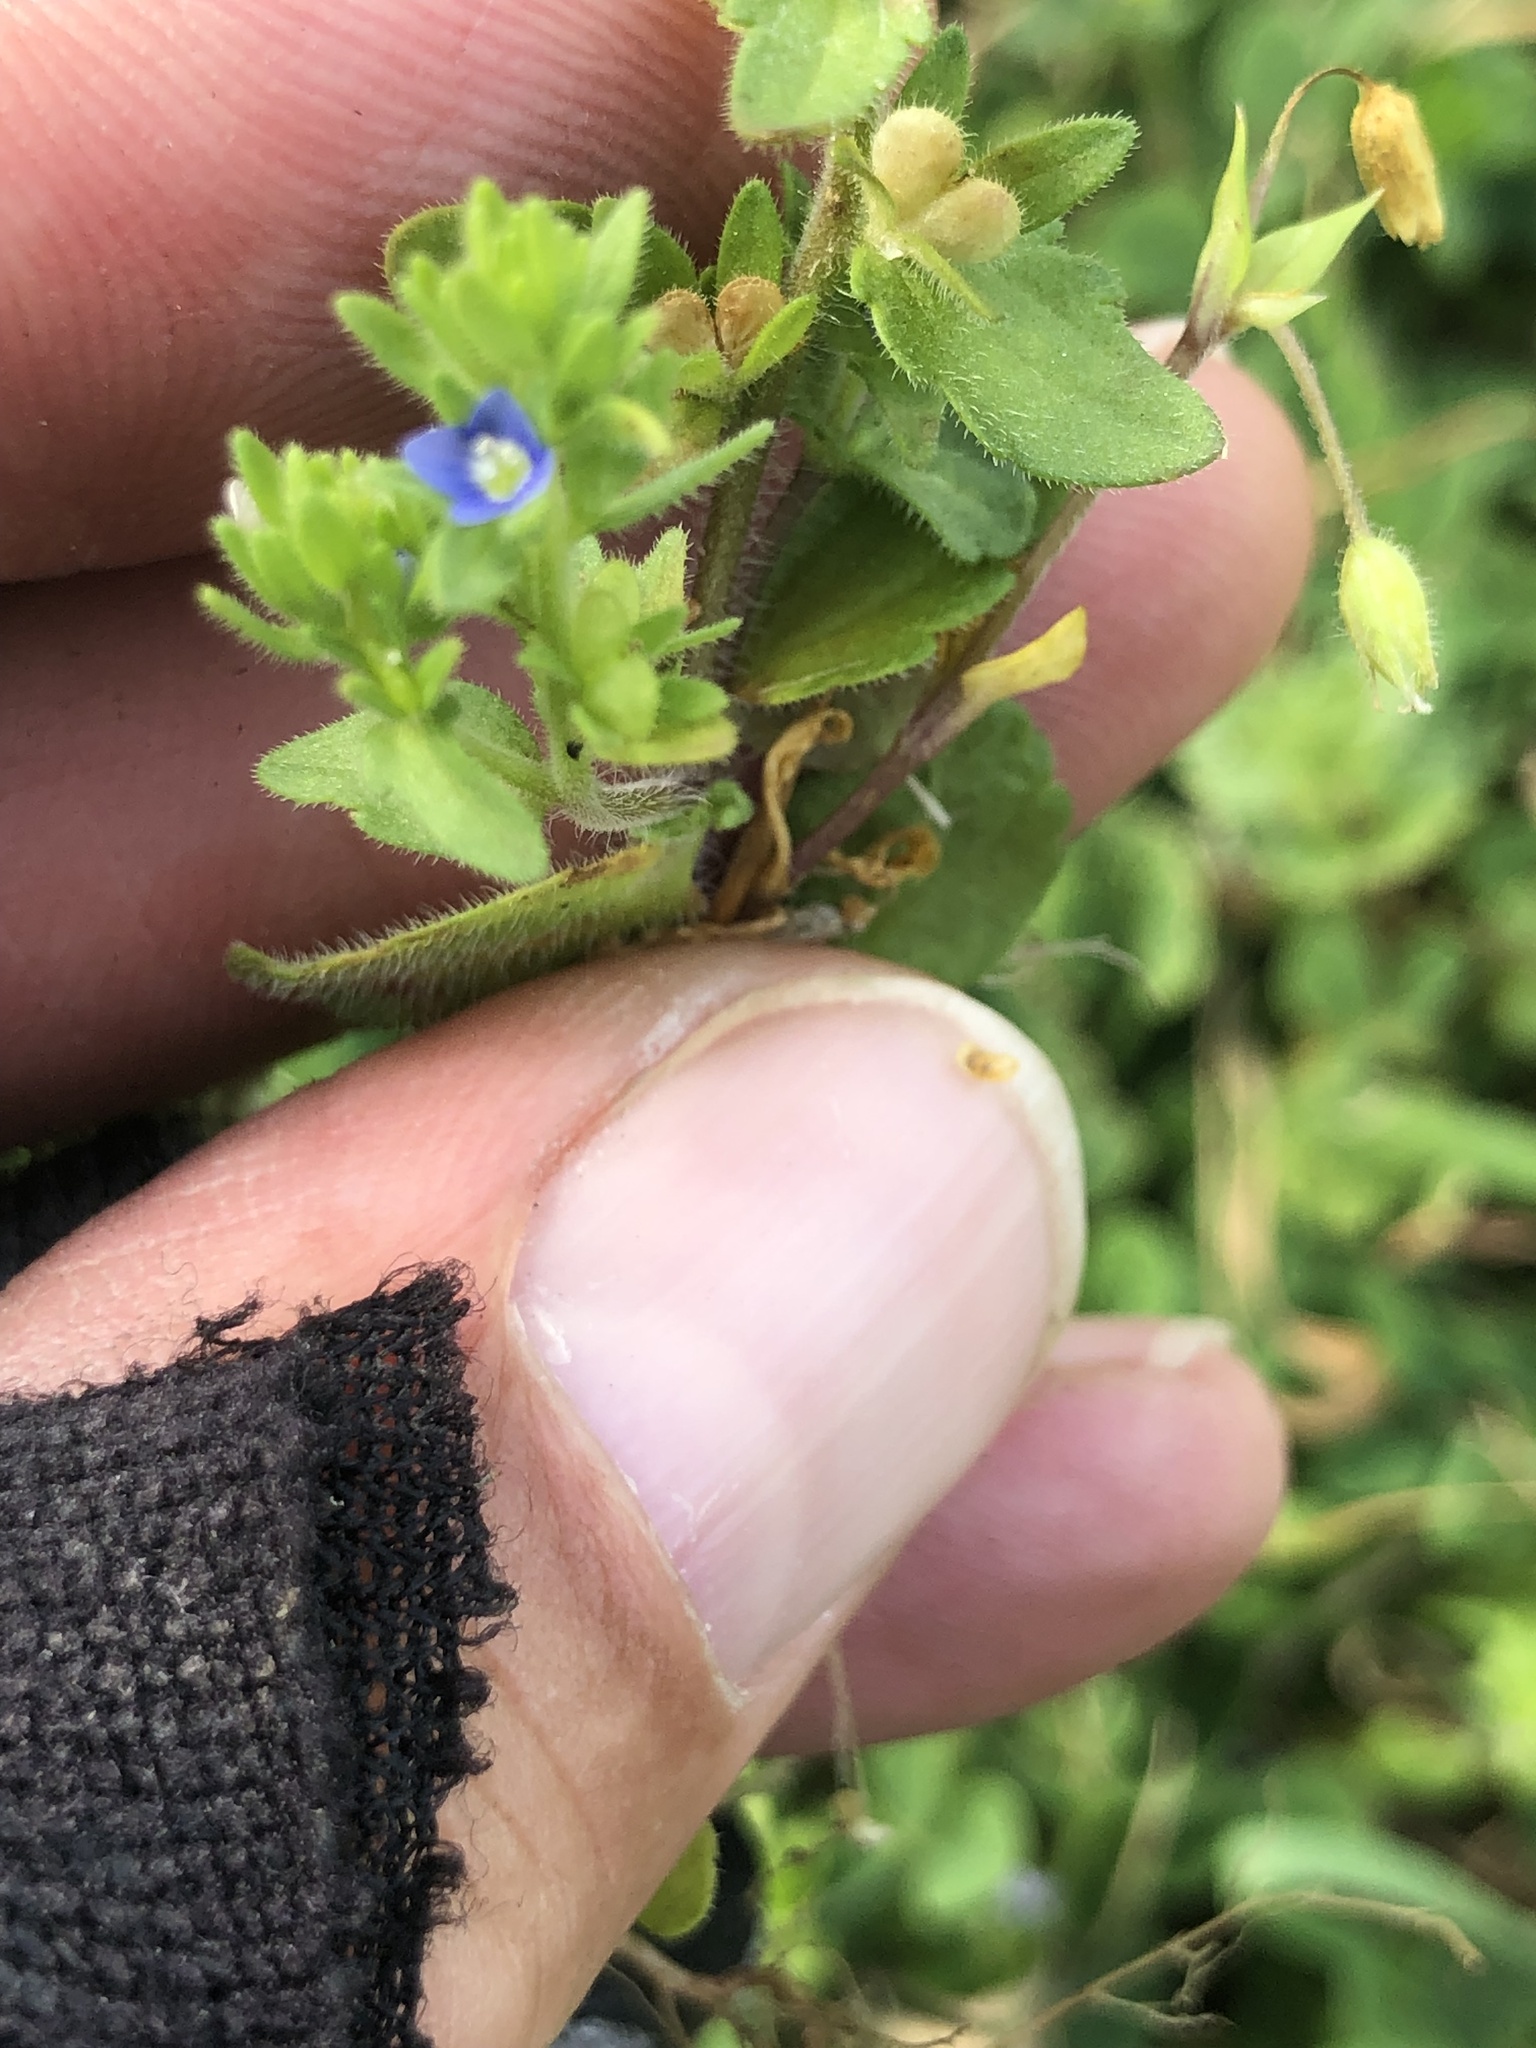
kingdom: Plantae
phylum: Tracheophyta
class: Magnoliopsida
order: Lamiales
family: Plantaginaceae
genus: Veronica
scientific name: Veronica arvensis
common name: Corn speedwell
